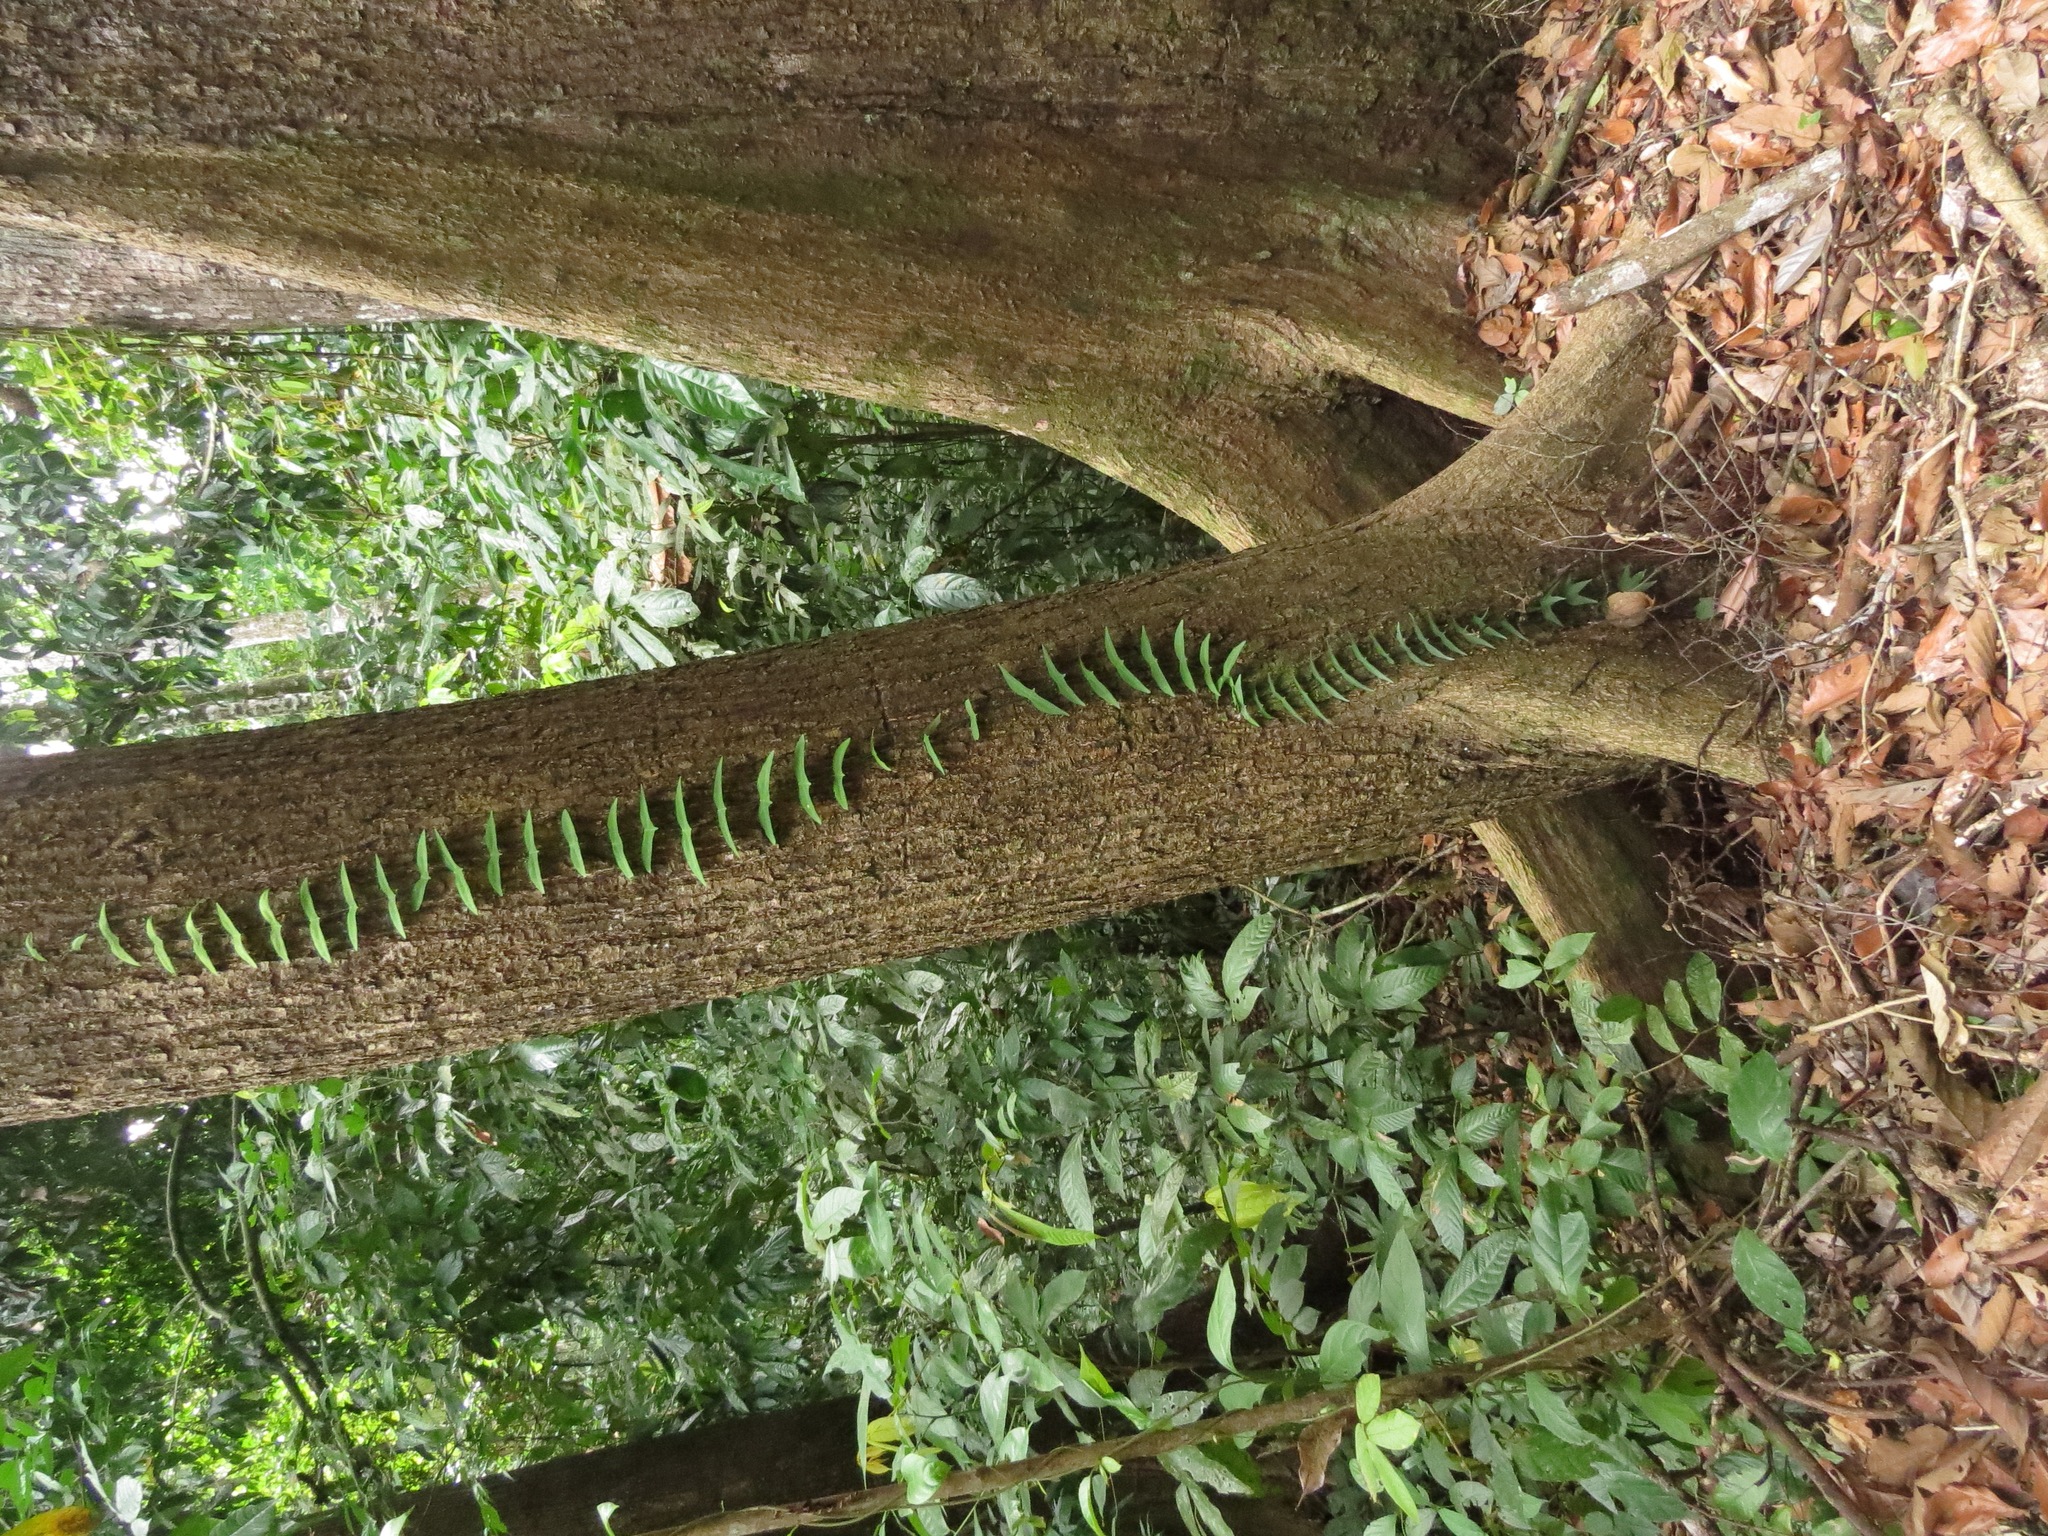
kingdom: Plantae
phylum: Tracheophyta
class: Magnoliopsida
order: Malpighiales
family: Passifloraceae
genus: Adenia
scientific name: Adenia cordifolia
